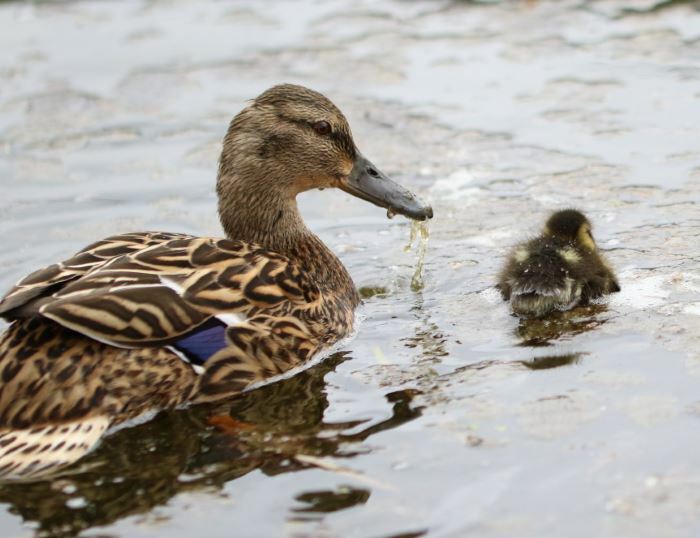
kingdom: Animalia
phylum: Chordata
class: Aves
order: Anseriformes
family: Anatidae
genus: Anas
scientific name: Anas platyrhynchos
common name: Mallard
